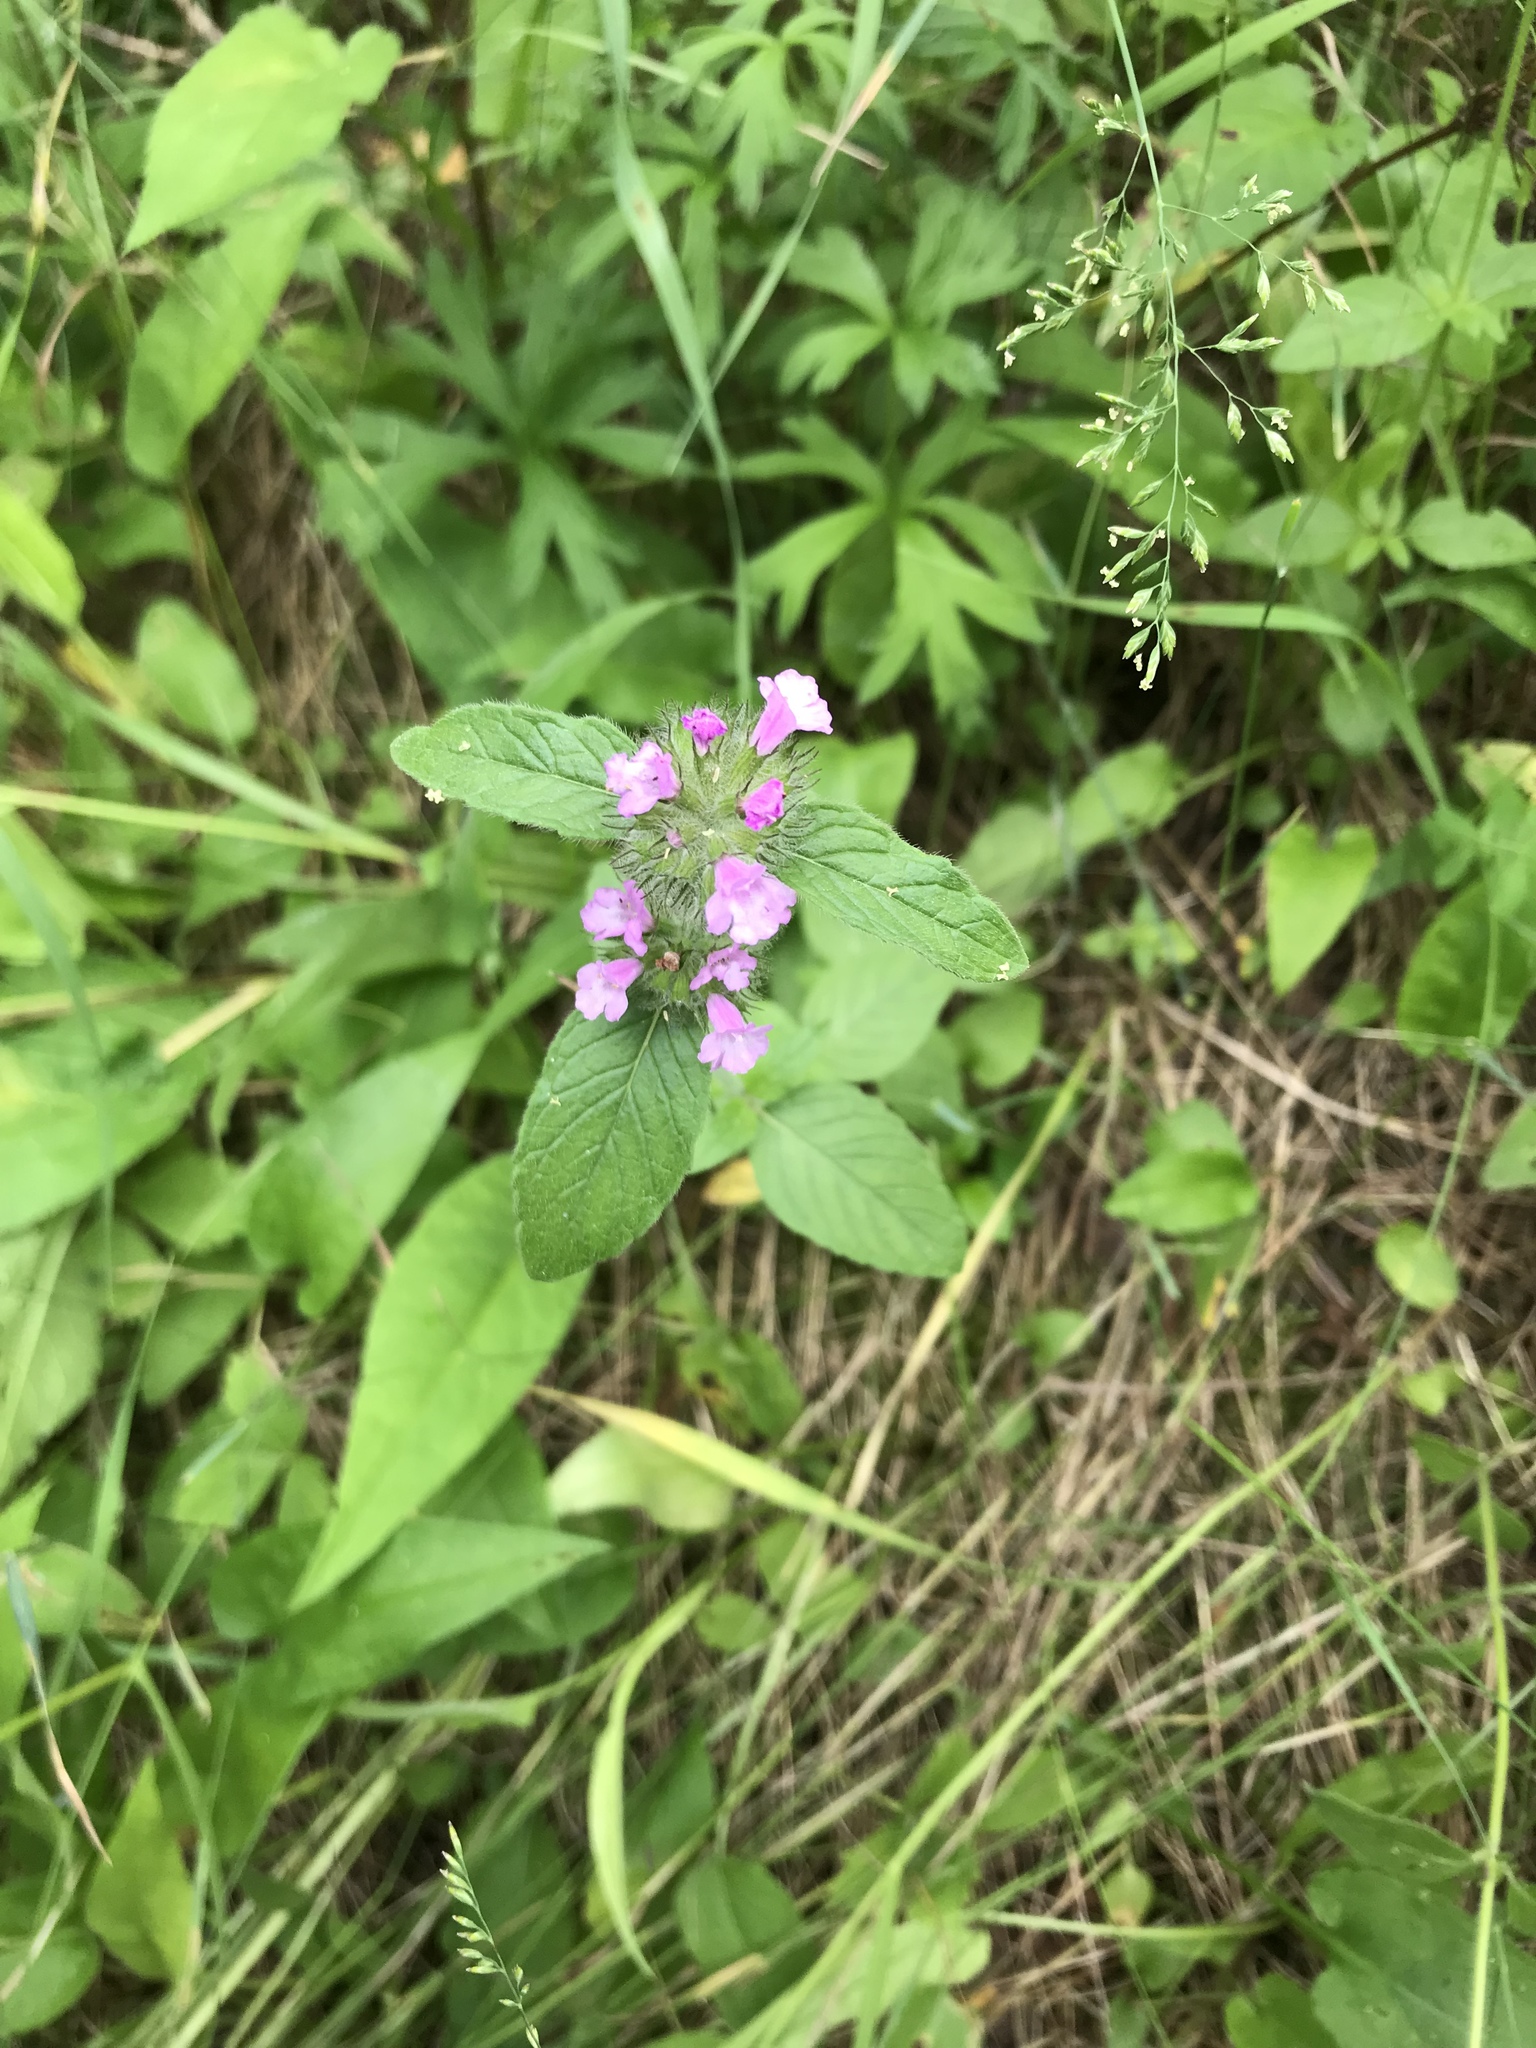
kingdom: Plantae
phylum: Tracheophyta
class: Magnoliopsida
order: Lamiales
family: Lamiaceae
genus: Clinopodium
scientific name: Clinopodium vulgare
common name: Wild basil
